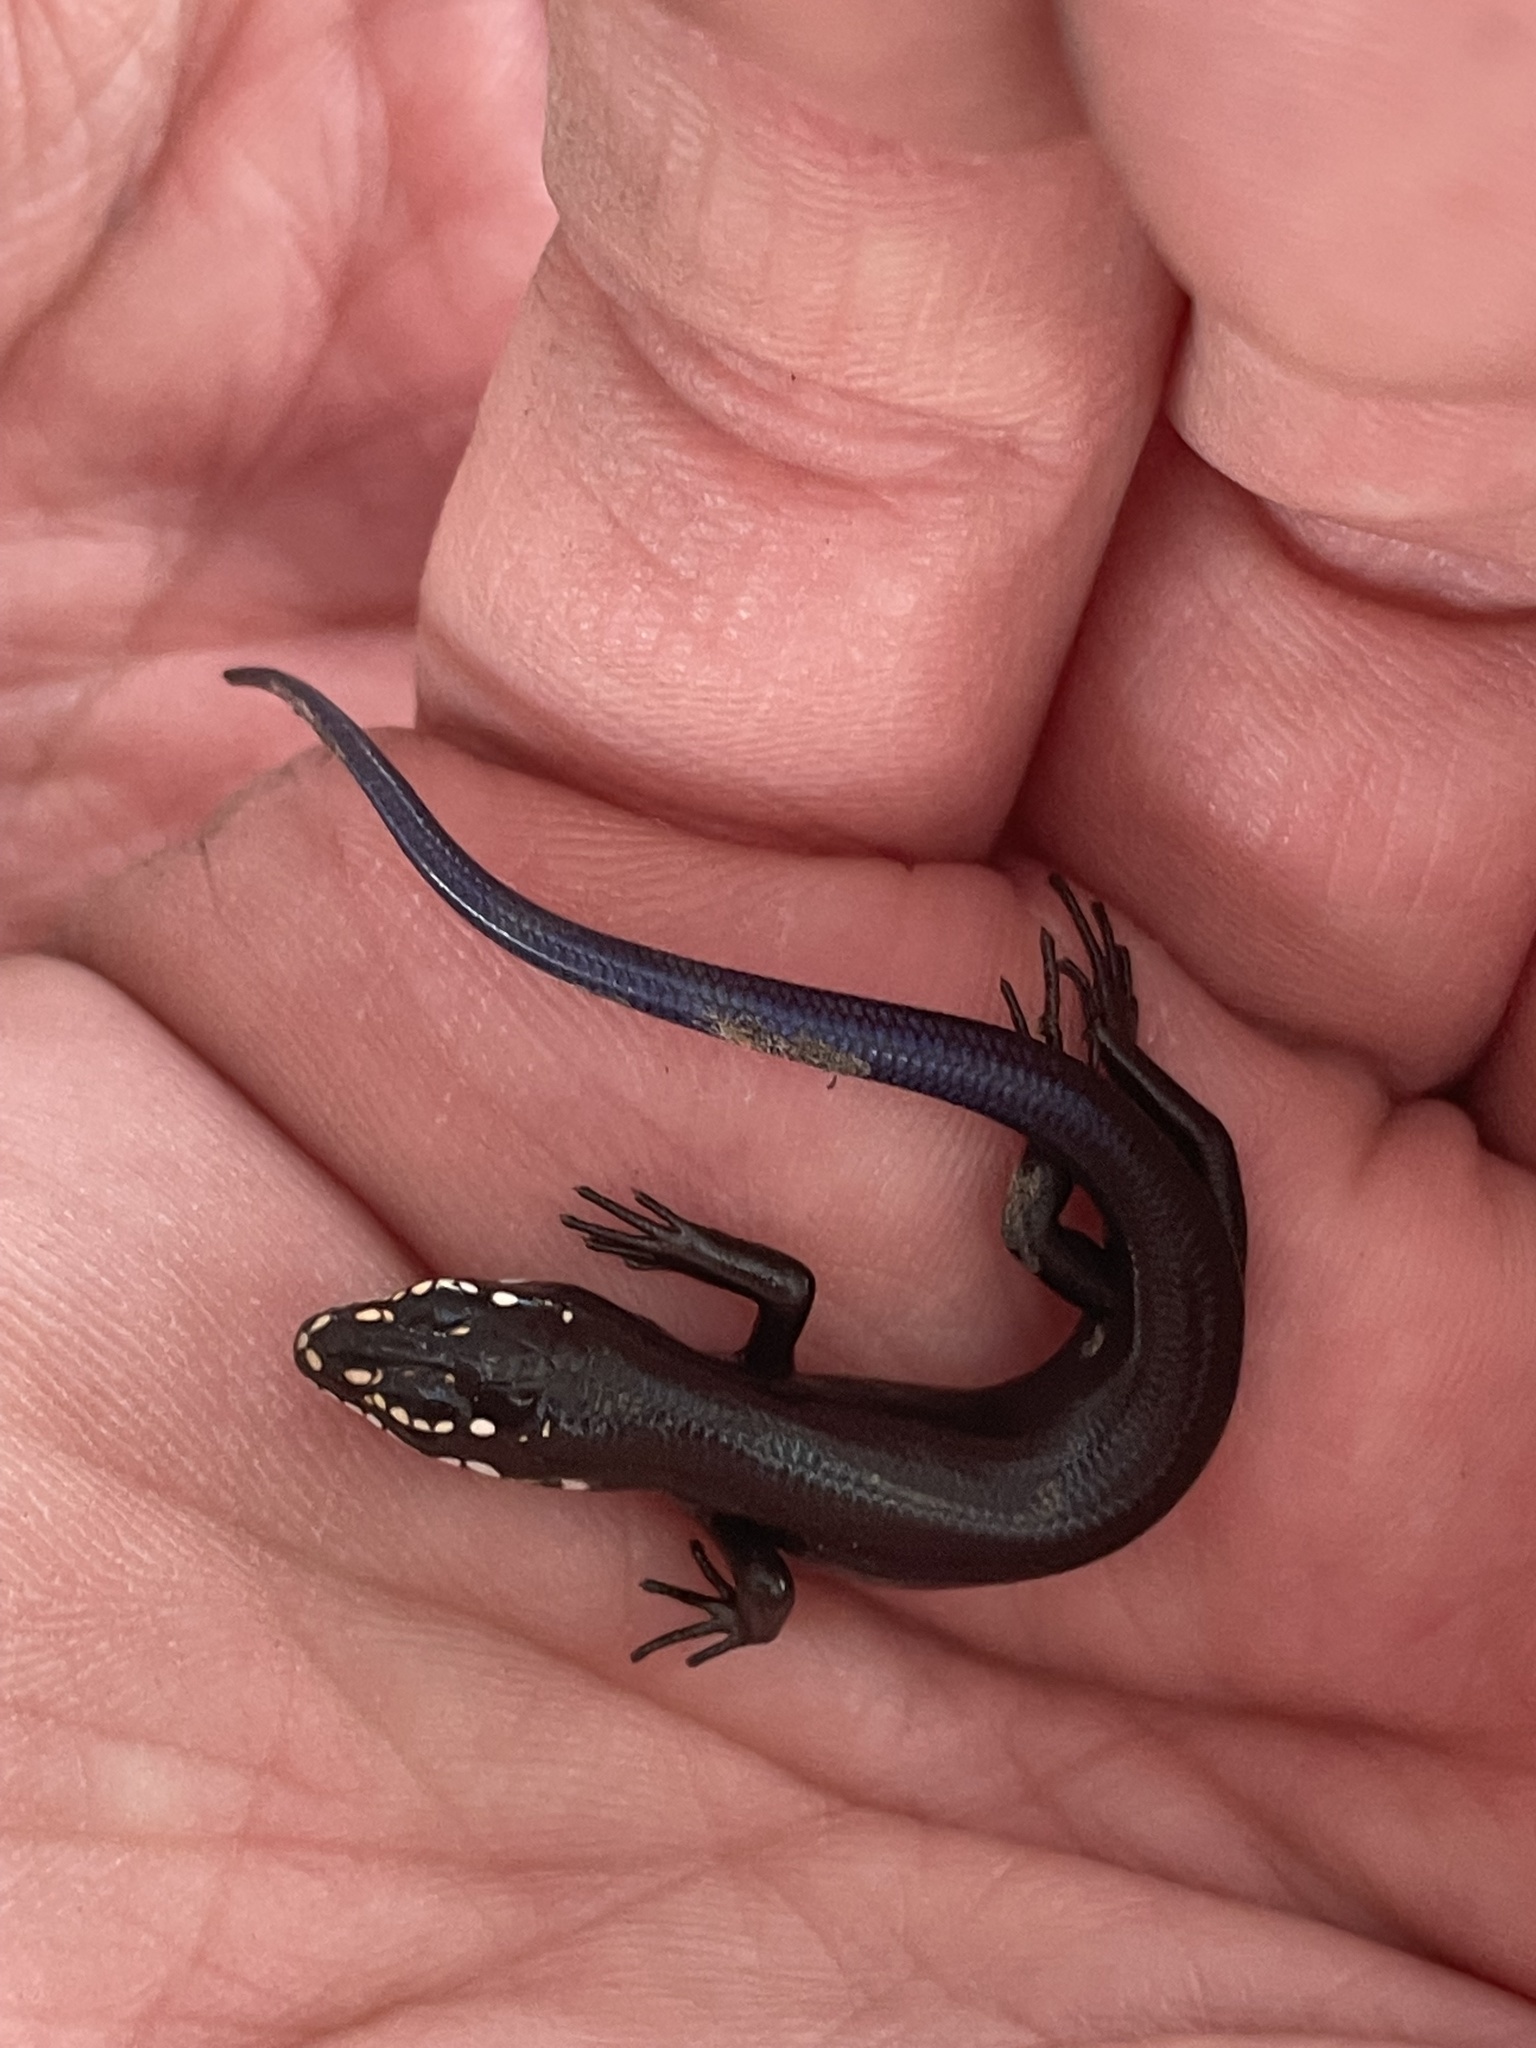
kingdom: Animalia
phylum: Chordata
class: Squamata
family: Scincidae
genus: Plestiodon
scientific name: Plestiodon obsoletus
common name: Great plains skink
